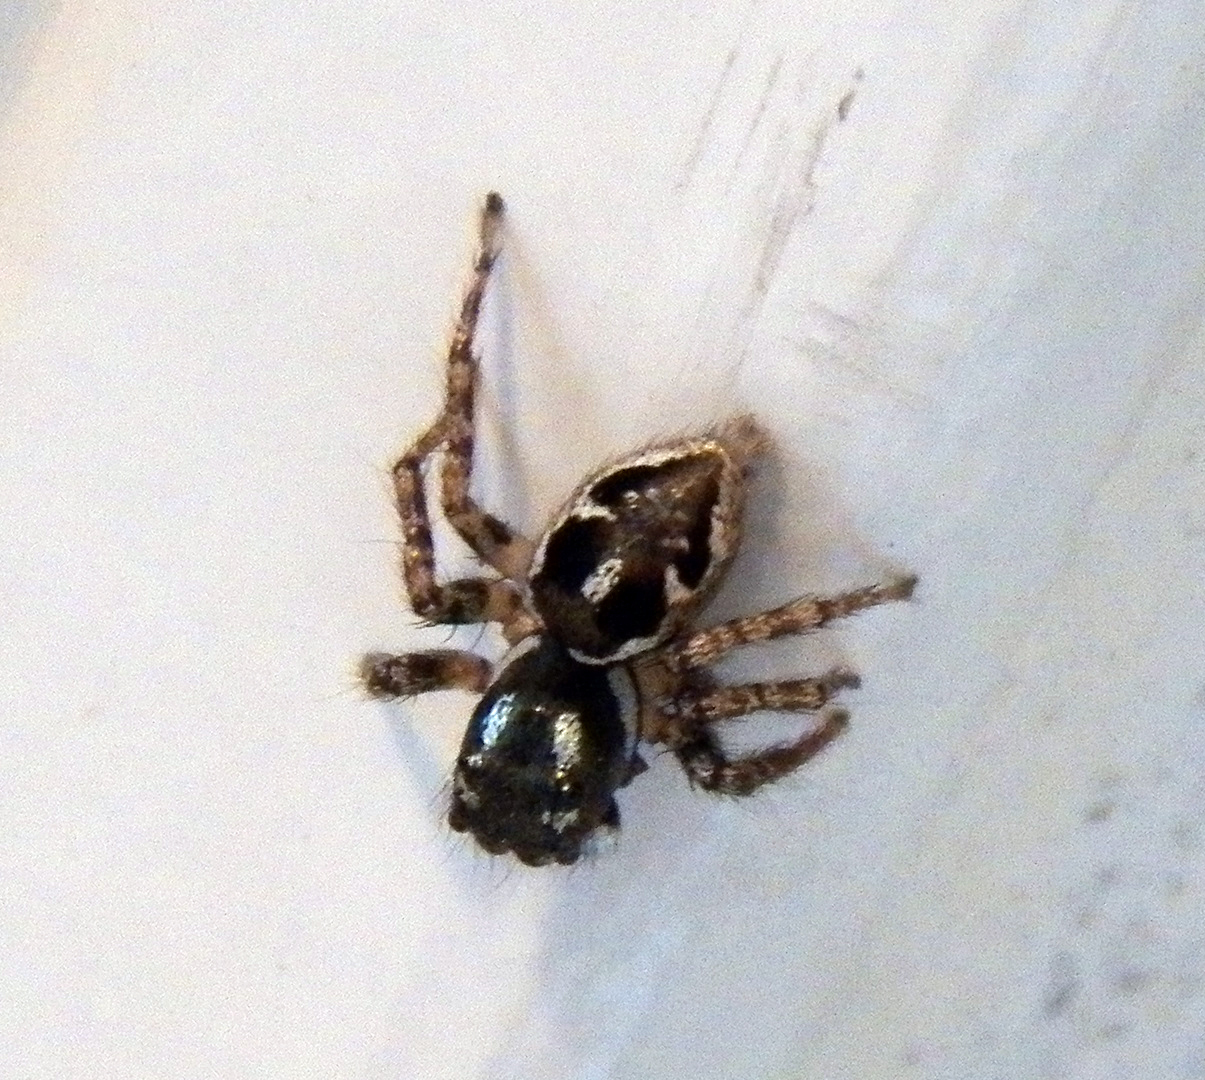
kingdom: Animalia
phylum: Arthropoda
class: Arachnida
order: Araneae
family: Salticidae
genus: Anasaitis
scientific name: Anasaitis canosa
